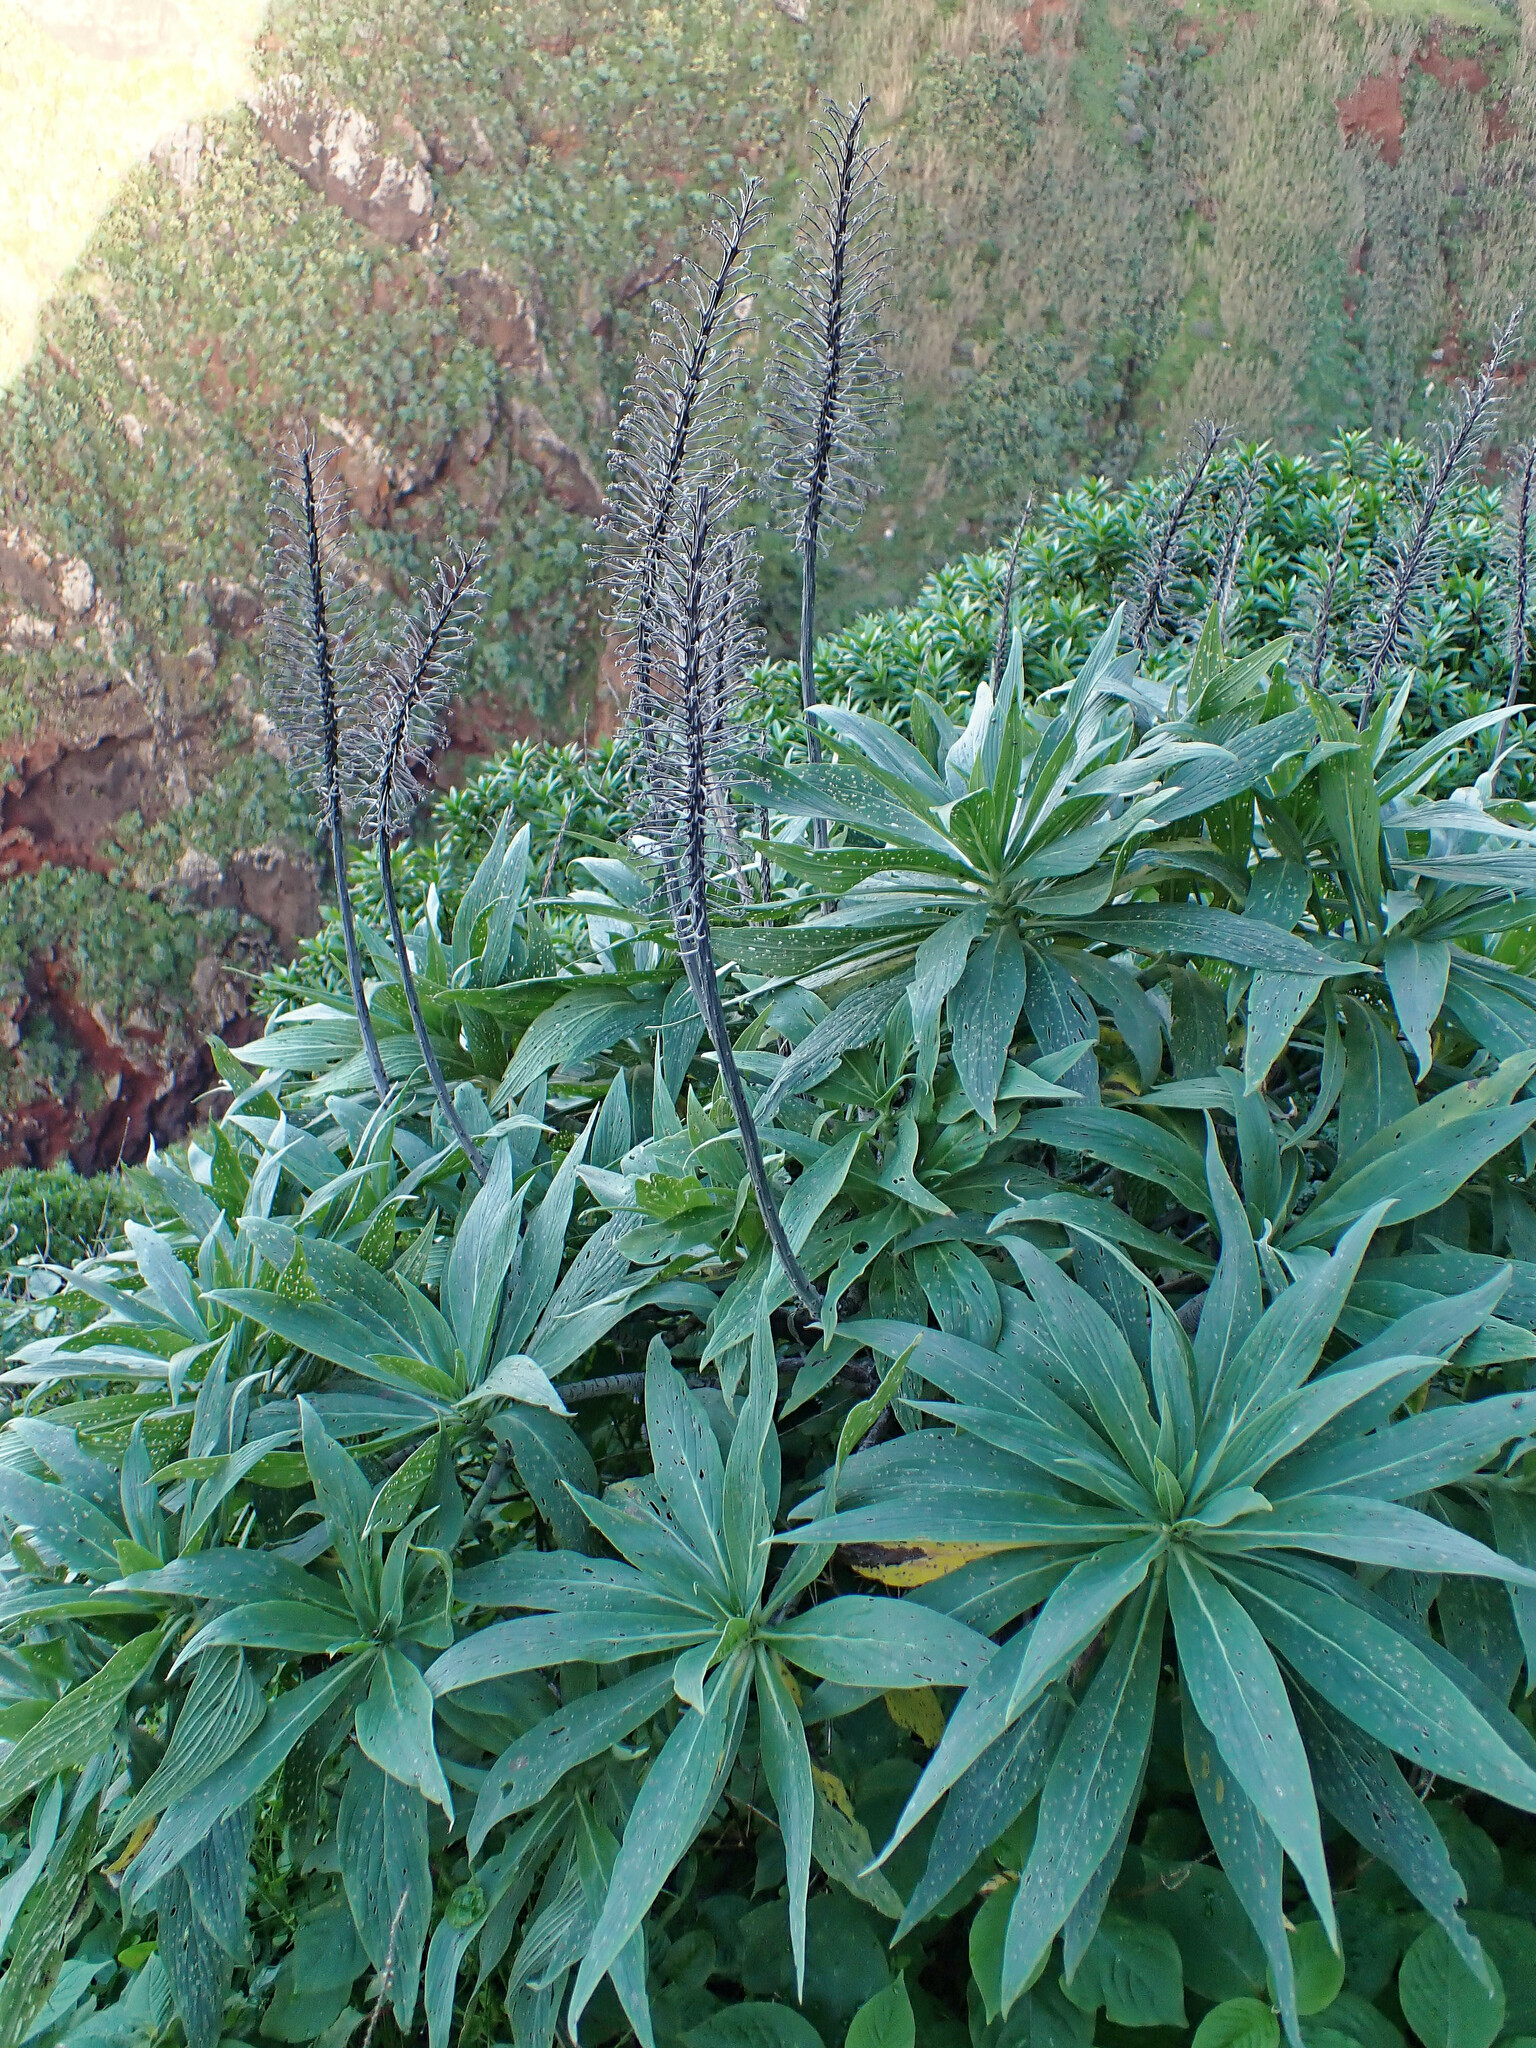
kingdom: Plantae
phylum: Tracheophyta
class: Magnoliopsida
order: Boraginales
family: Boraginaceae
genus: Echium
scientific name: Echium candicans
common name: Pride of madeira
